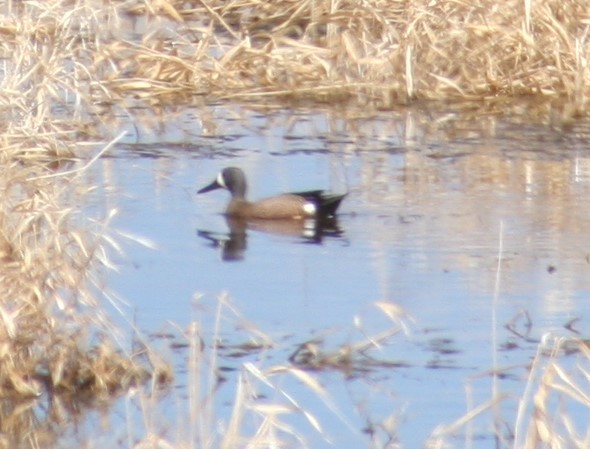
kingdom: Animalia
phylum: Chordata
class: Aves
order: Anseriformes
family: Anatidae
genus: Spatula
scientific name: Spatula discors
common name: Blue-winged teal
